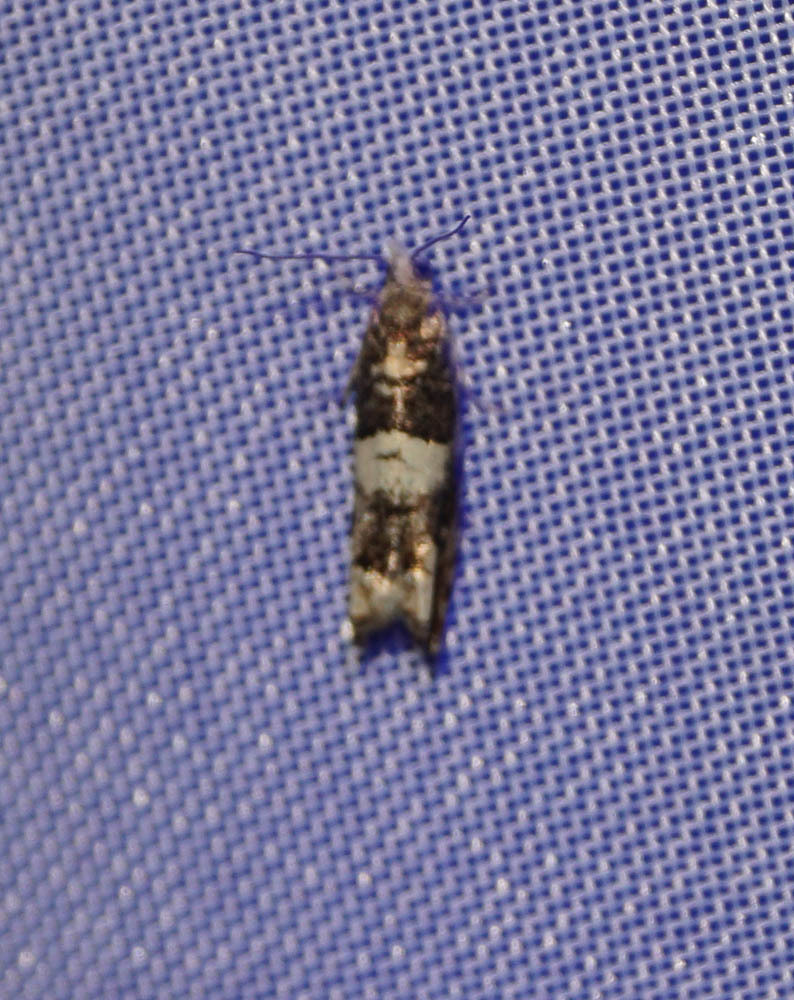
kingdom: Animalia
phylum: Arthropoda
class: Insecta
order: Lepidoptera
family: Tortricidae
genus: Epinotia
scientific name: Epinotia demarniana
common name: Birch bell
